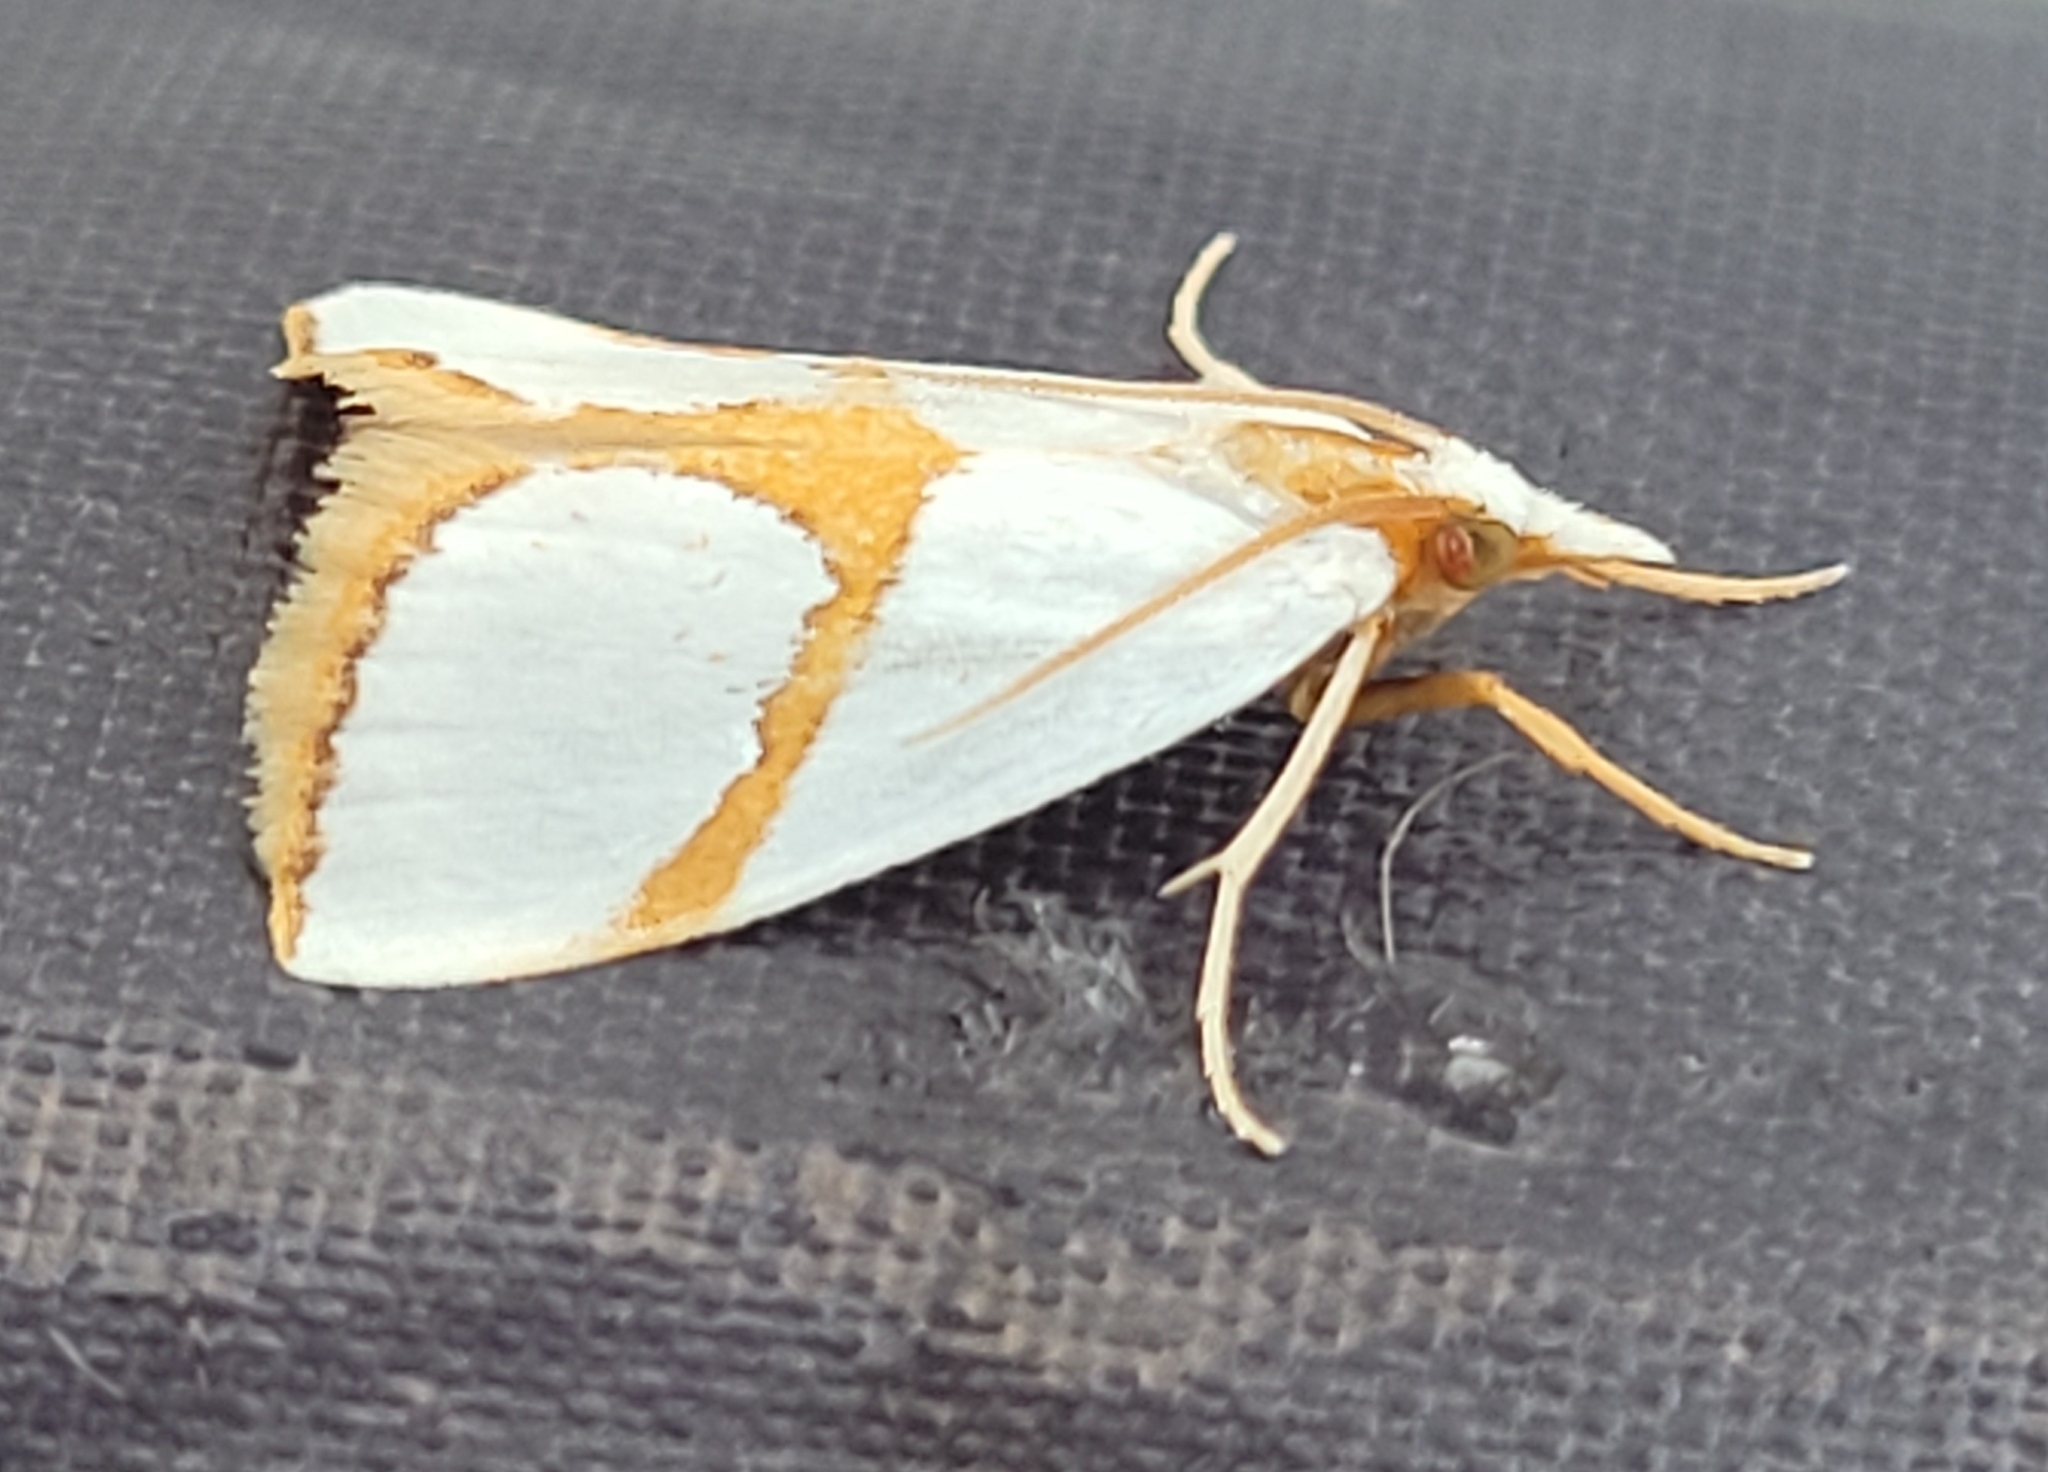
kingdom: Animalia
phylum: Arthropoda
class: Insecta
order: Lepidoptera
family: Crambidae
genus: Argyria
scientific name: Argyria auratella
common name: Curve-lined argyria moth
